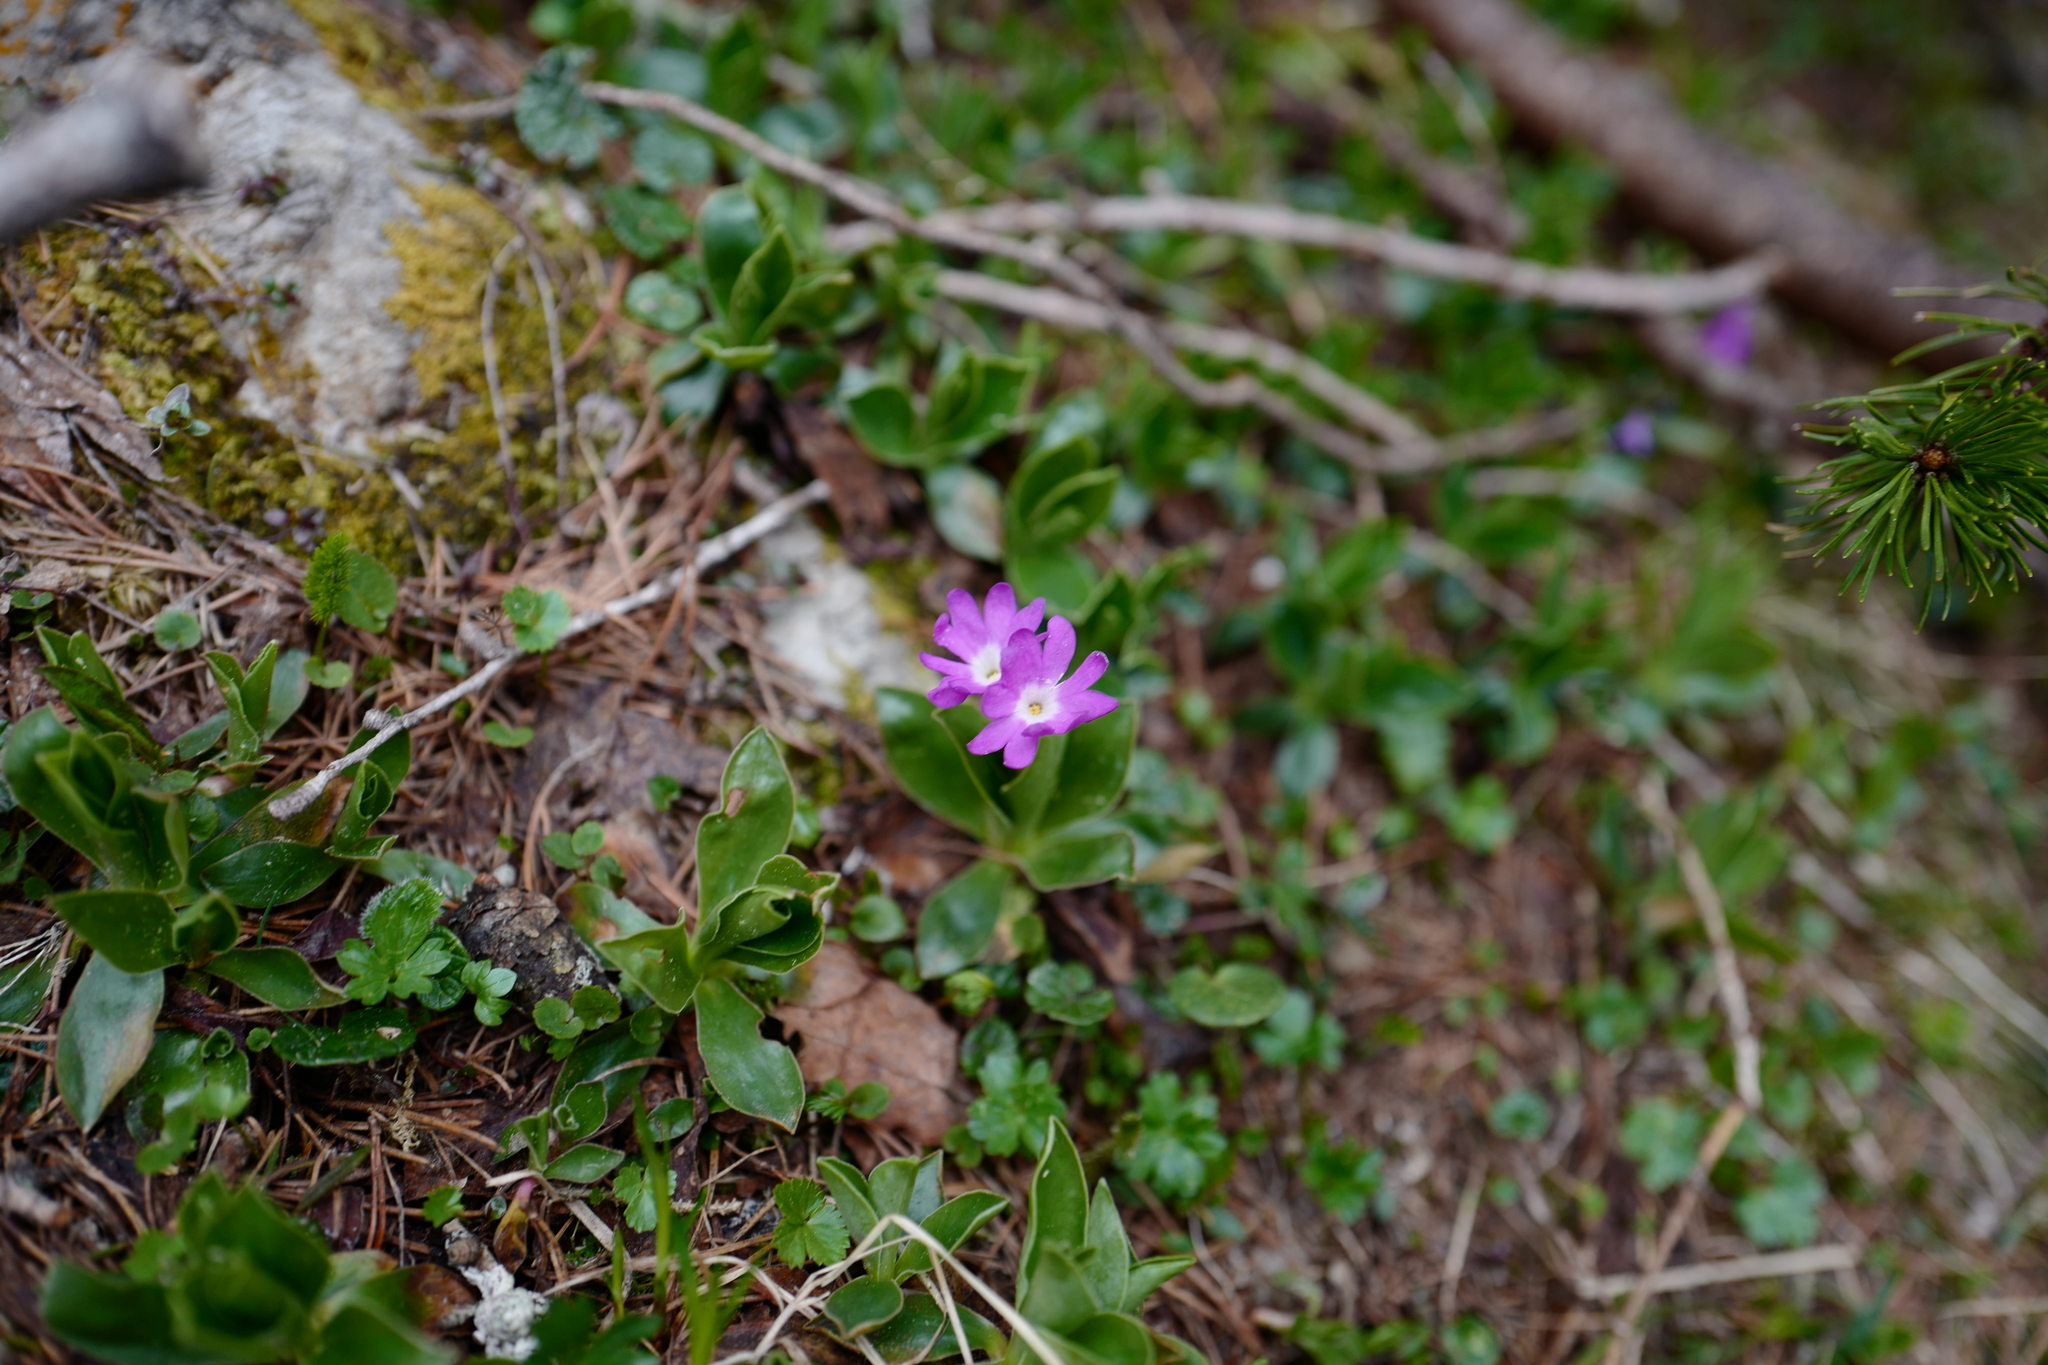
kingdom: Plantae
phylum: Tracheophyta
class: Magnoliopsida
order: Ericales
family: Primulaceae
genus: Primula
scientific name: Primula clusiana
